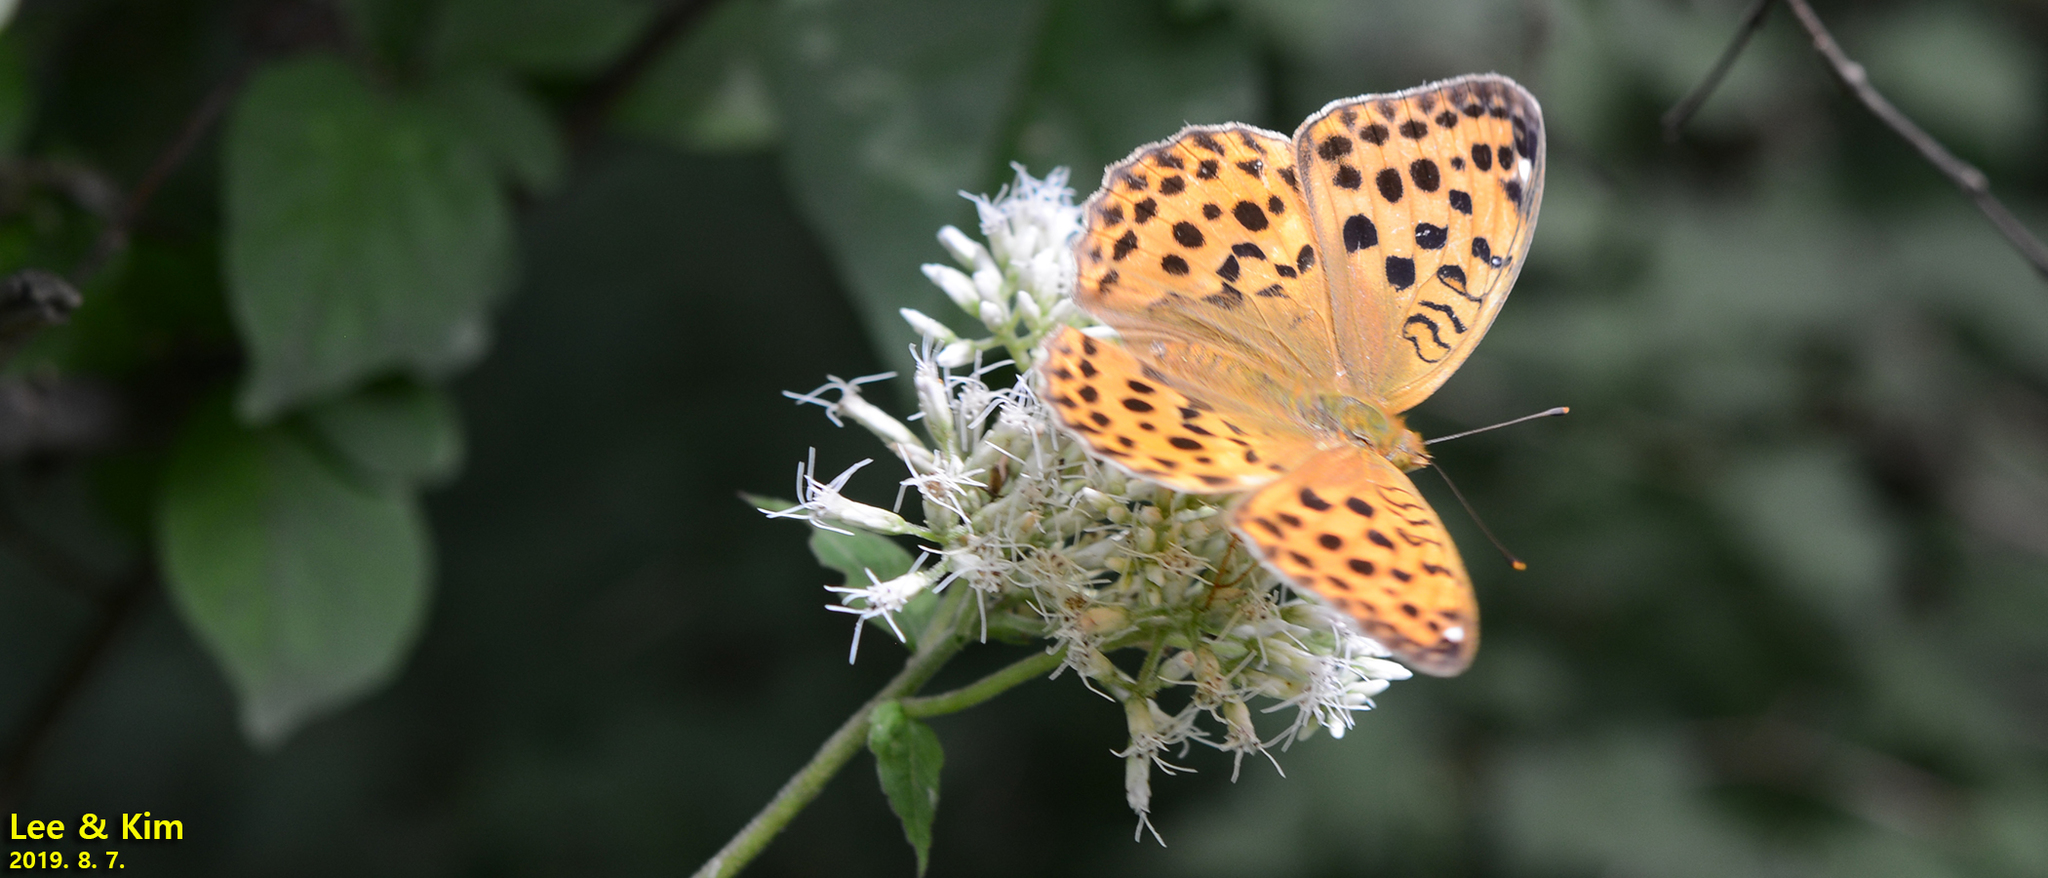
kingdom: Animalia
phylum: Arthropoda
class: Insecta
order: Lepidoptera
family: Nymphalidae
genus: Argyronome
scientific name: Argyronome laodice
